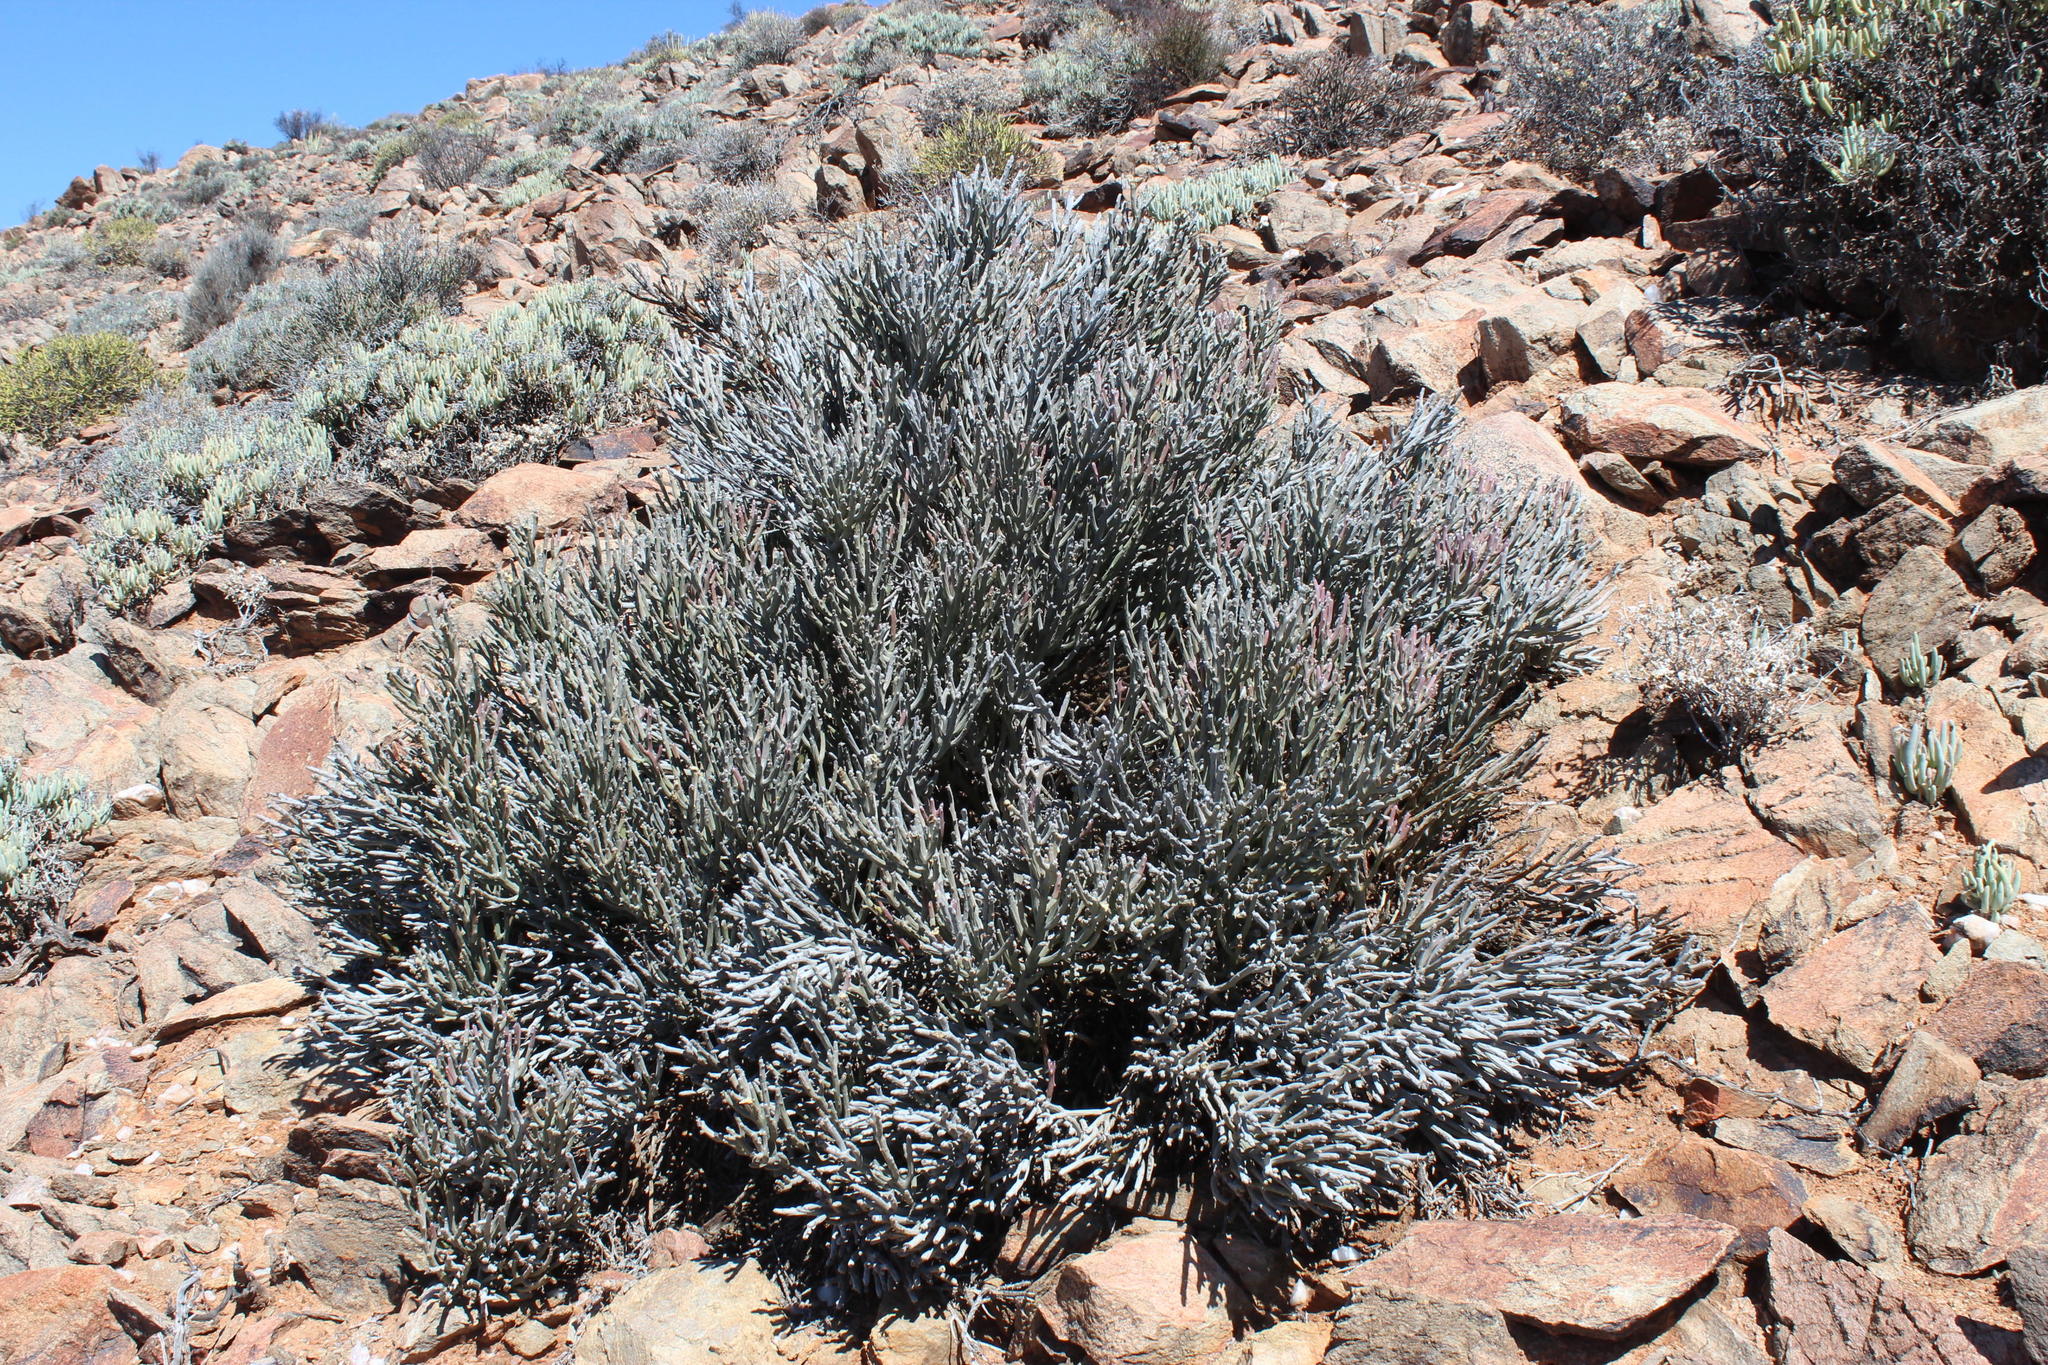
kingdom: Plantae
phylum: Tracheophyta
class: Magnoliopsida
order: Malpighiales
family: Euphorbiaceae
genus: Euphorbia
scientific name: Euphorbia gummifera
